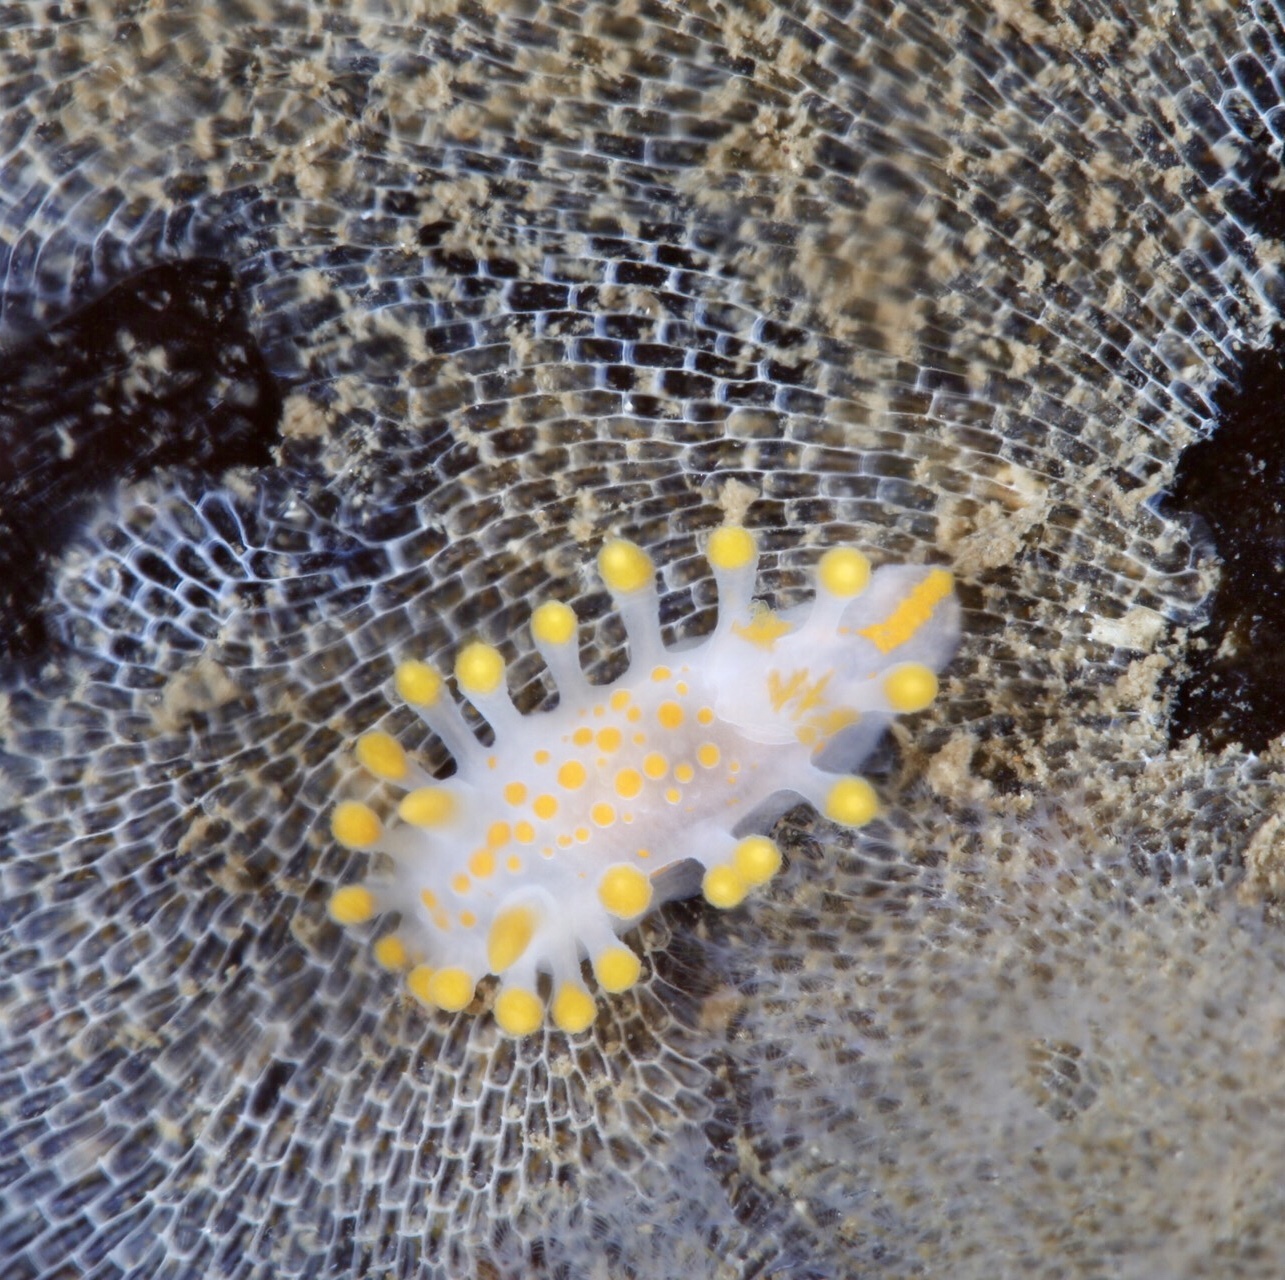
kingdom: Animalia
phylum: Mollusca
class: Gastropoda
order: Nudibranchia
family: Polyceridae
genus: Limacia
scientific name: Limacia clavigera
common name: Orange-clubbed sea slug
